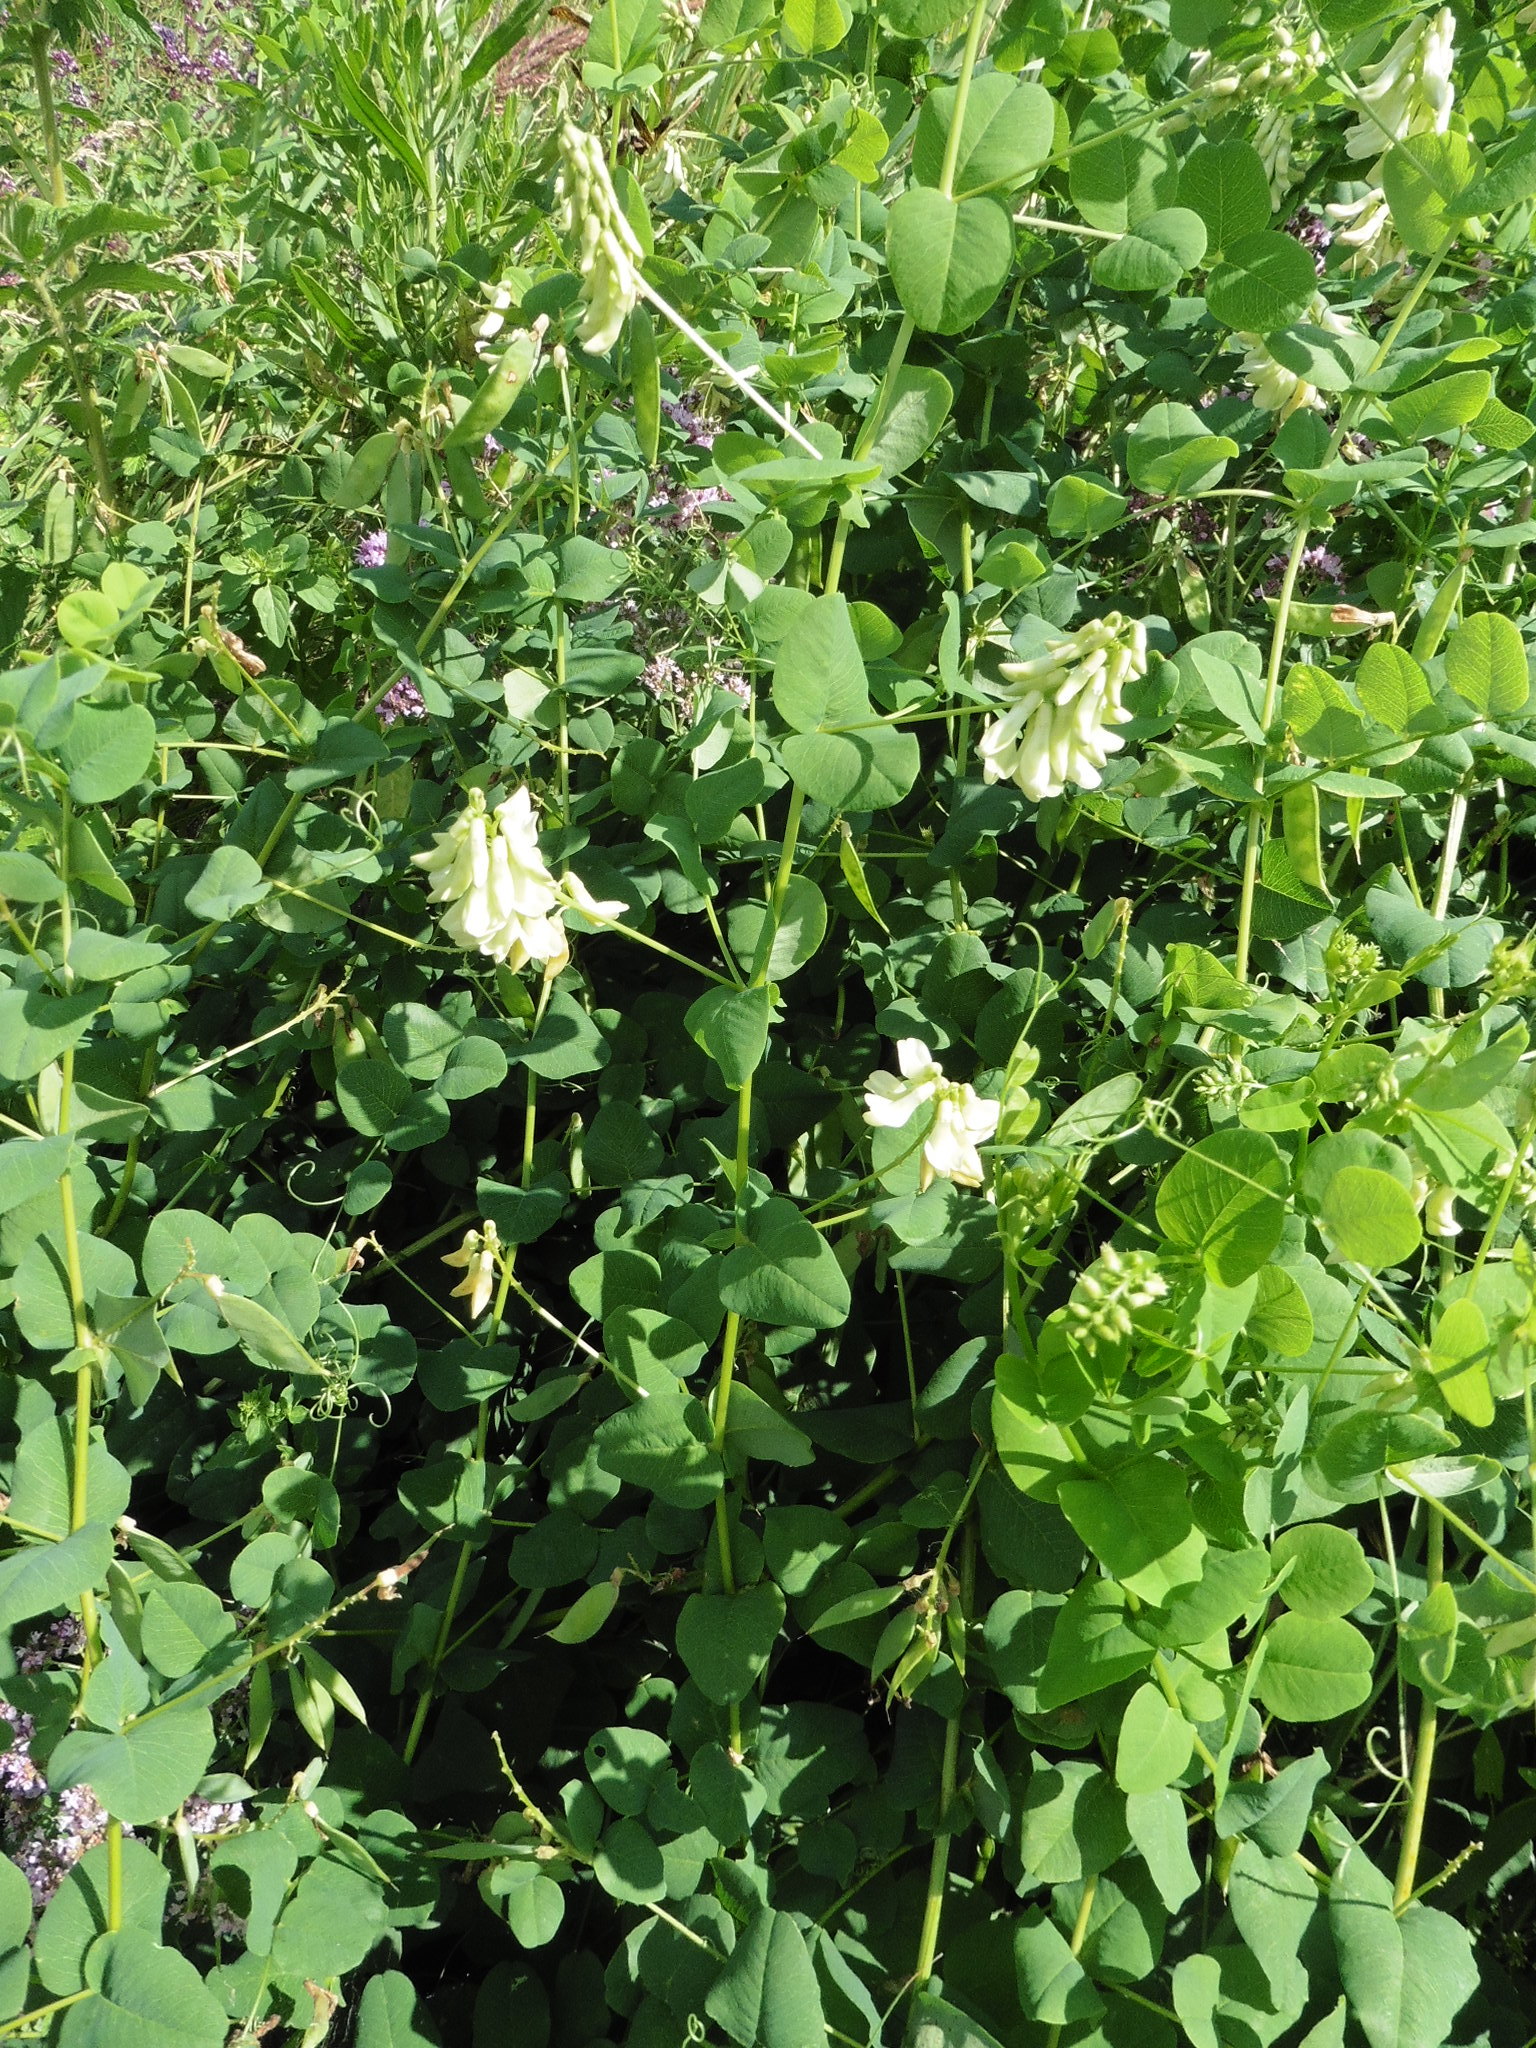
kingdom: Plantae
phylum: Tracheophyta
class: Magnoliopsida
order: Fabales
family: Fabaceae
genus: Vicia
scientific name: Vicia pisiformis
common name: Pale-flower vetch
